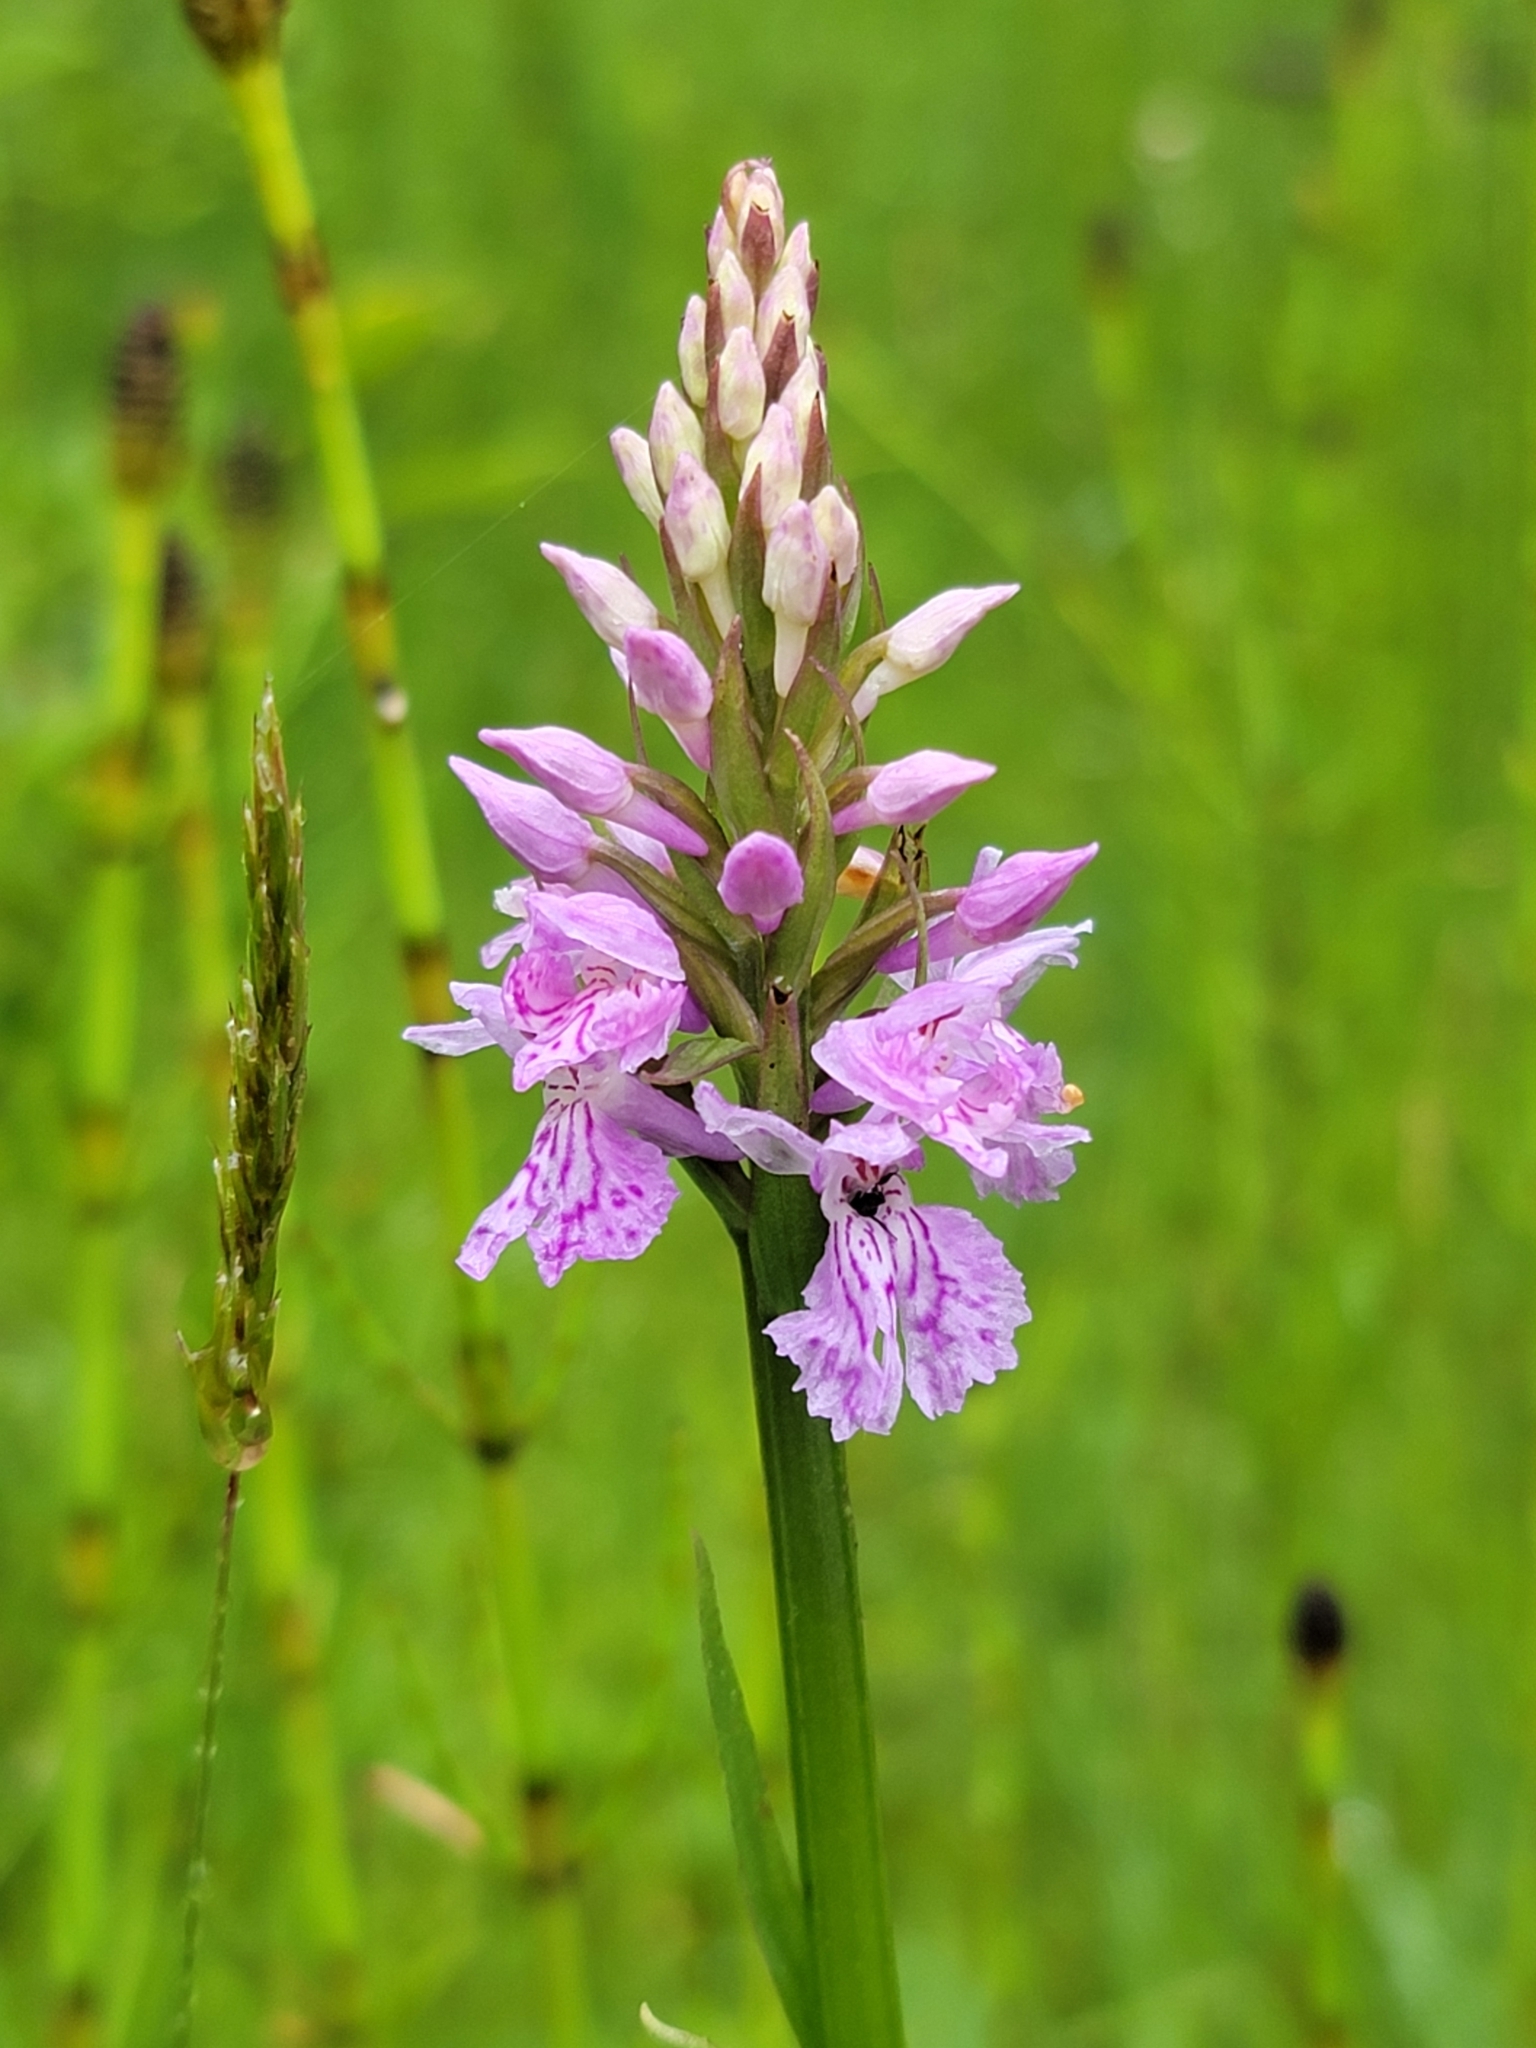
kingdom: Plantae
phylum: Tracheophyta
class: Liliopsida
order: Asparagales
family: Orchidaceae
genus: Dactylorhiza
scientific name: Dactylorhiza maculata
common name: Heath spotted-orchid
